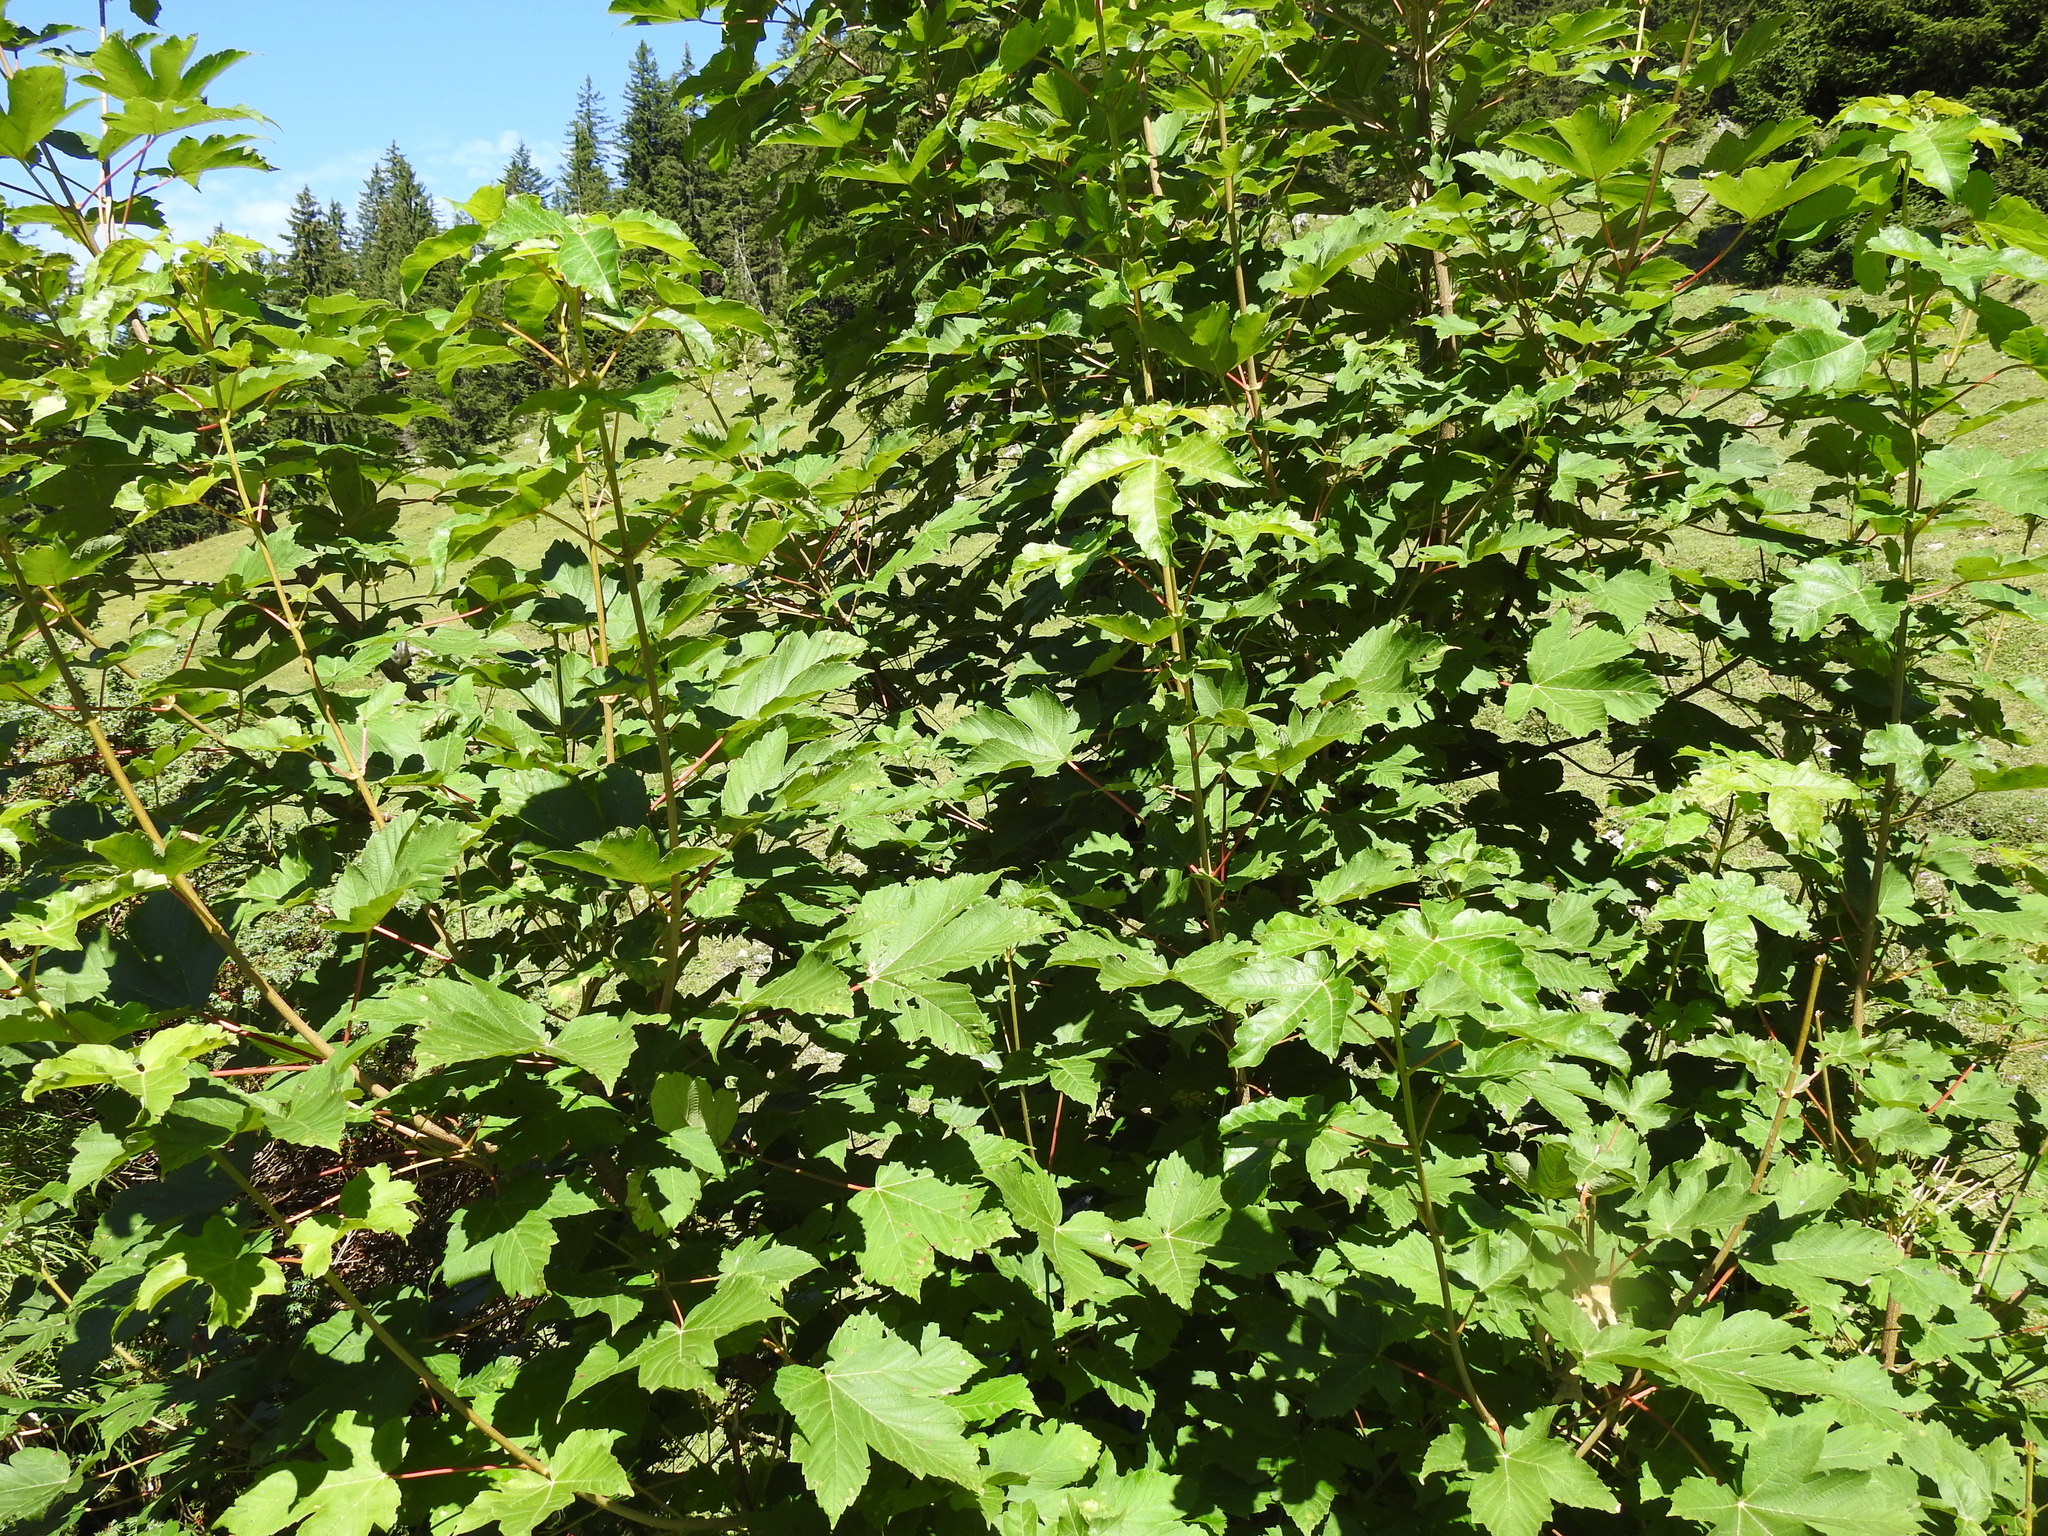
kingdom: Plantae
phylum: Tracheophyta
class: Magnoliopsida
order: Sapindales
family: Sapindaceae
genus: Acer
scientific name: Acer pseudoplatanus
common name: Sycamore
